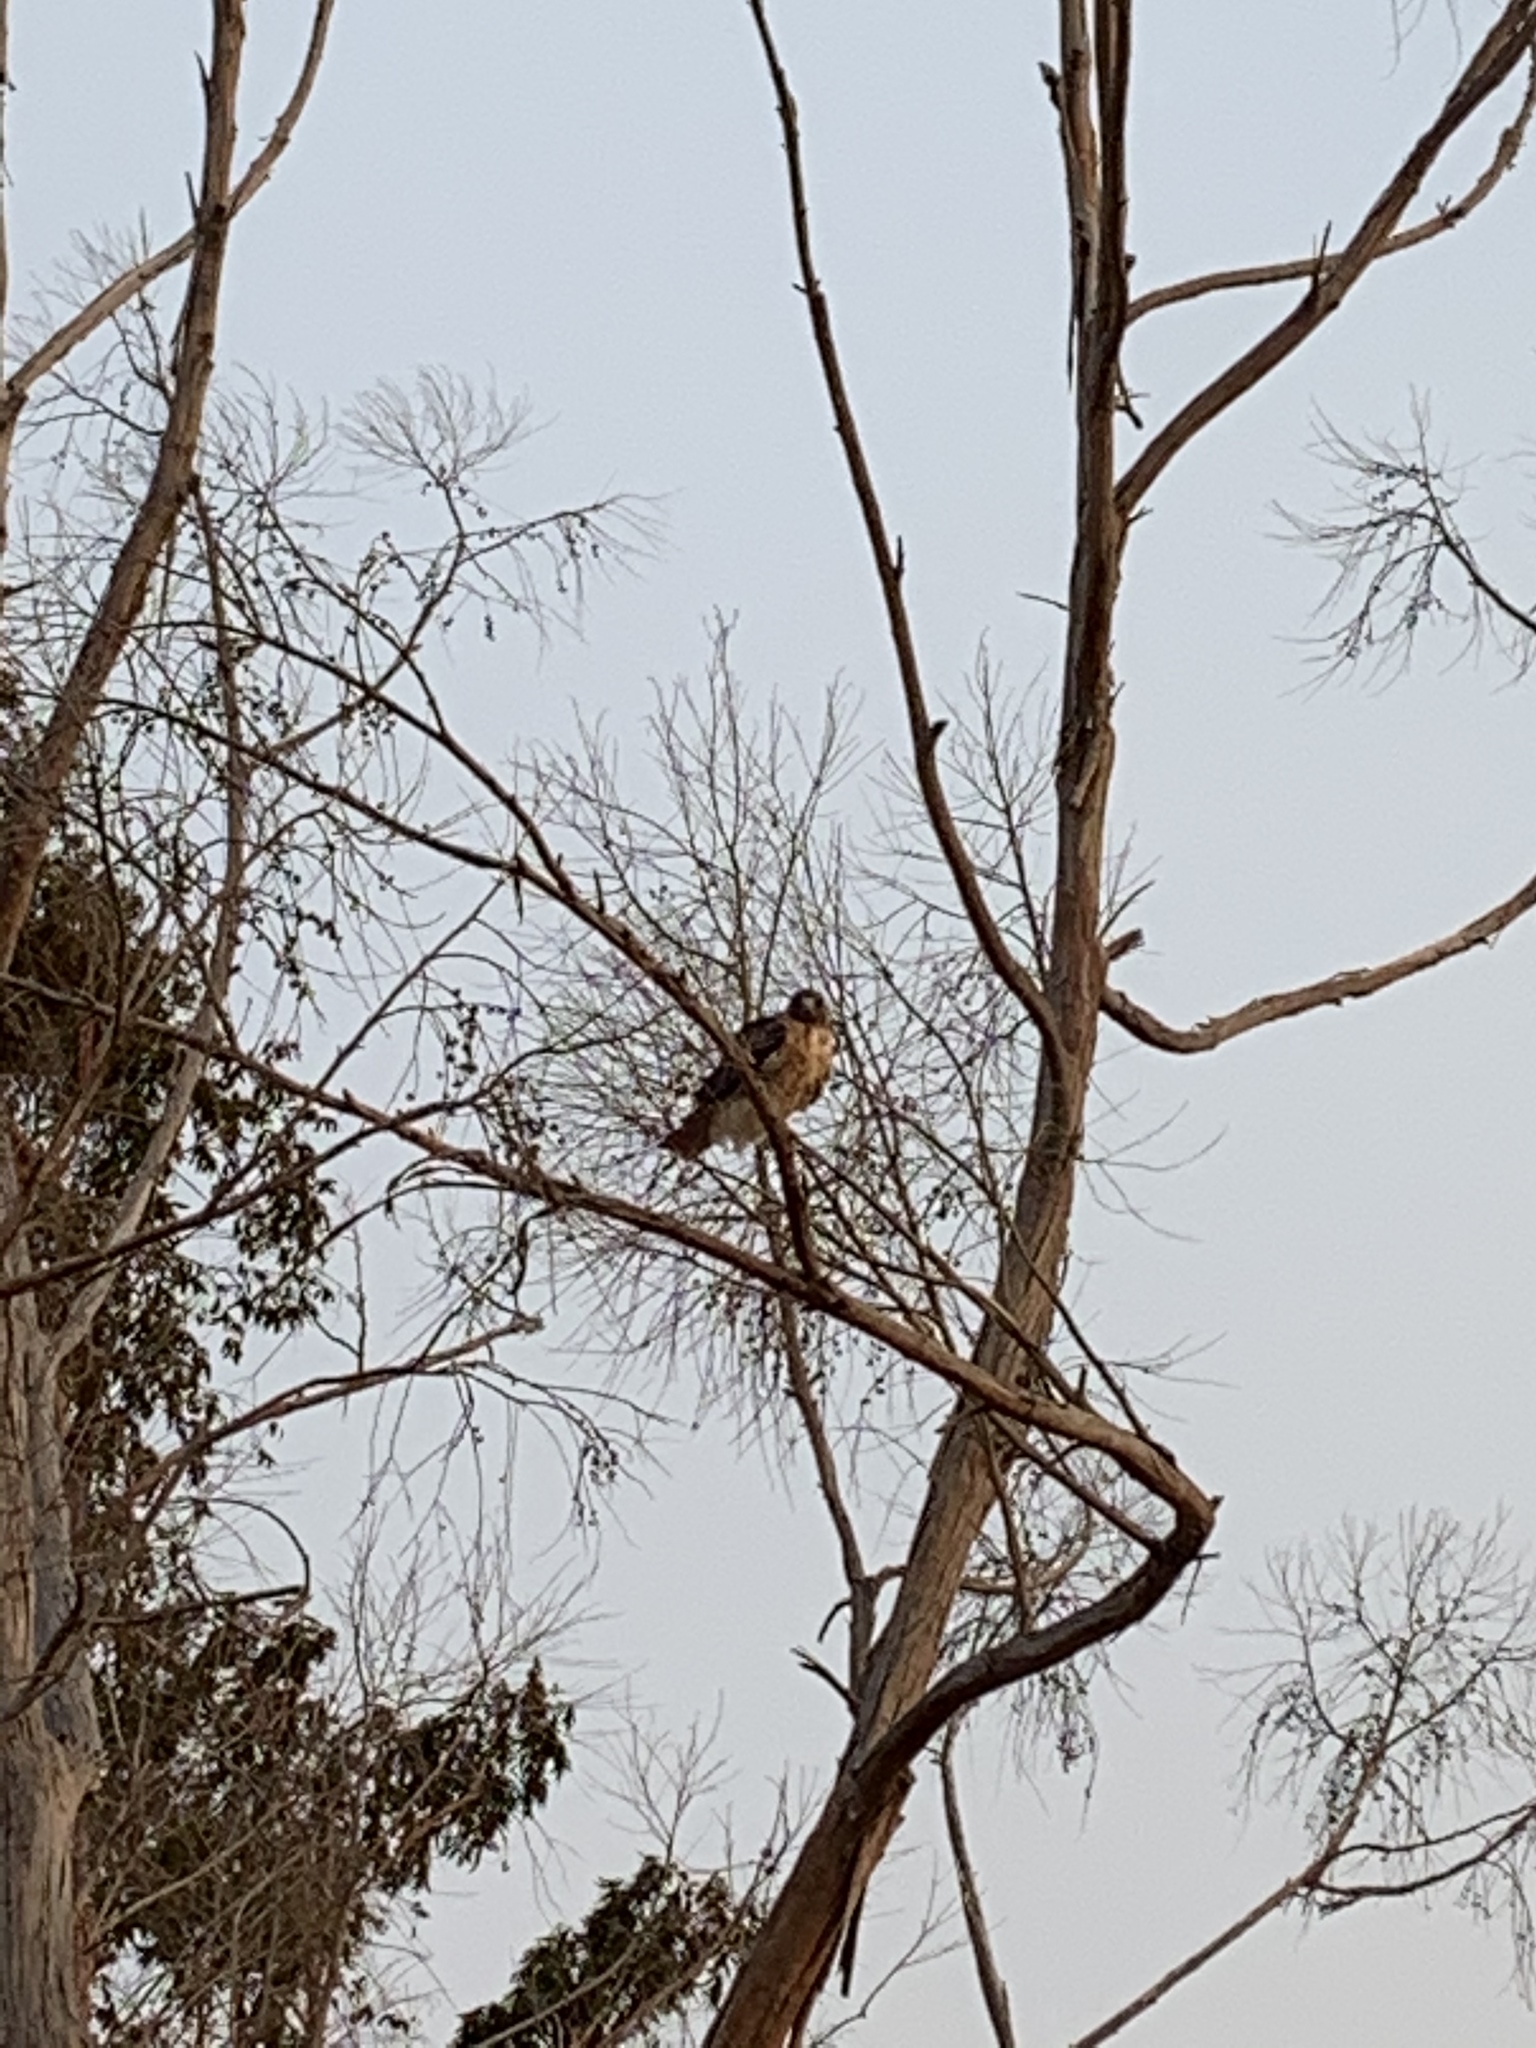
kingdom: Animalia
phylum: Chordata
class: Aves
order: Accipitriformes
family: Accipitridae
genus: Buteo
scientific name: Buteo jamaicensis
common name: Red-tailed hawk
